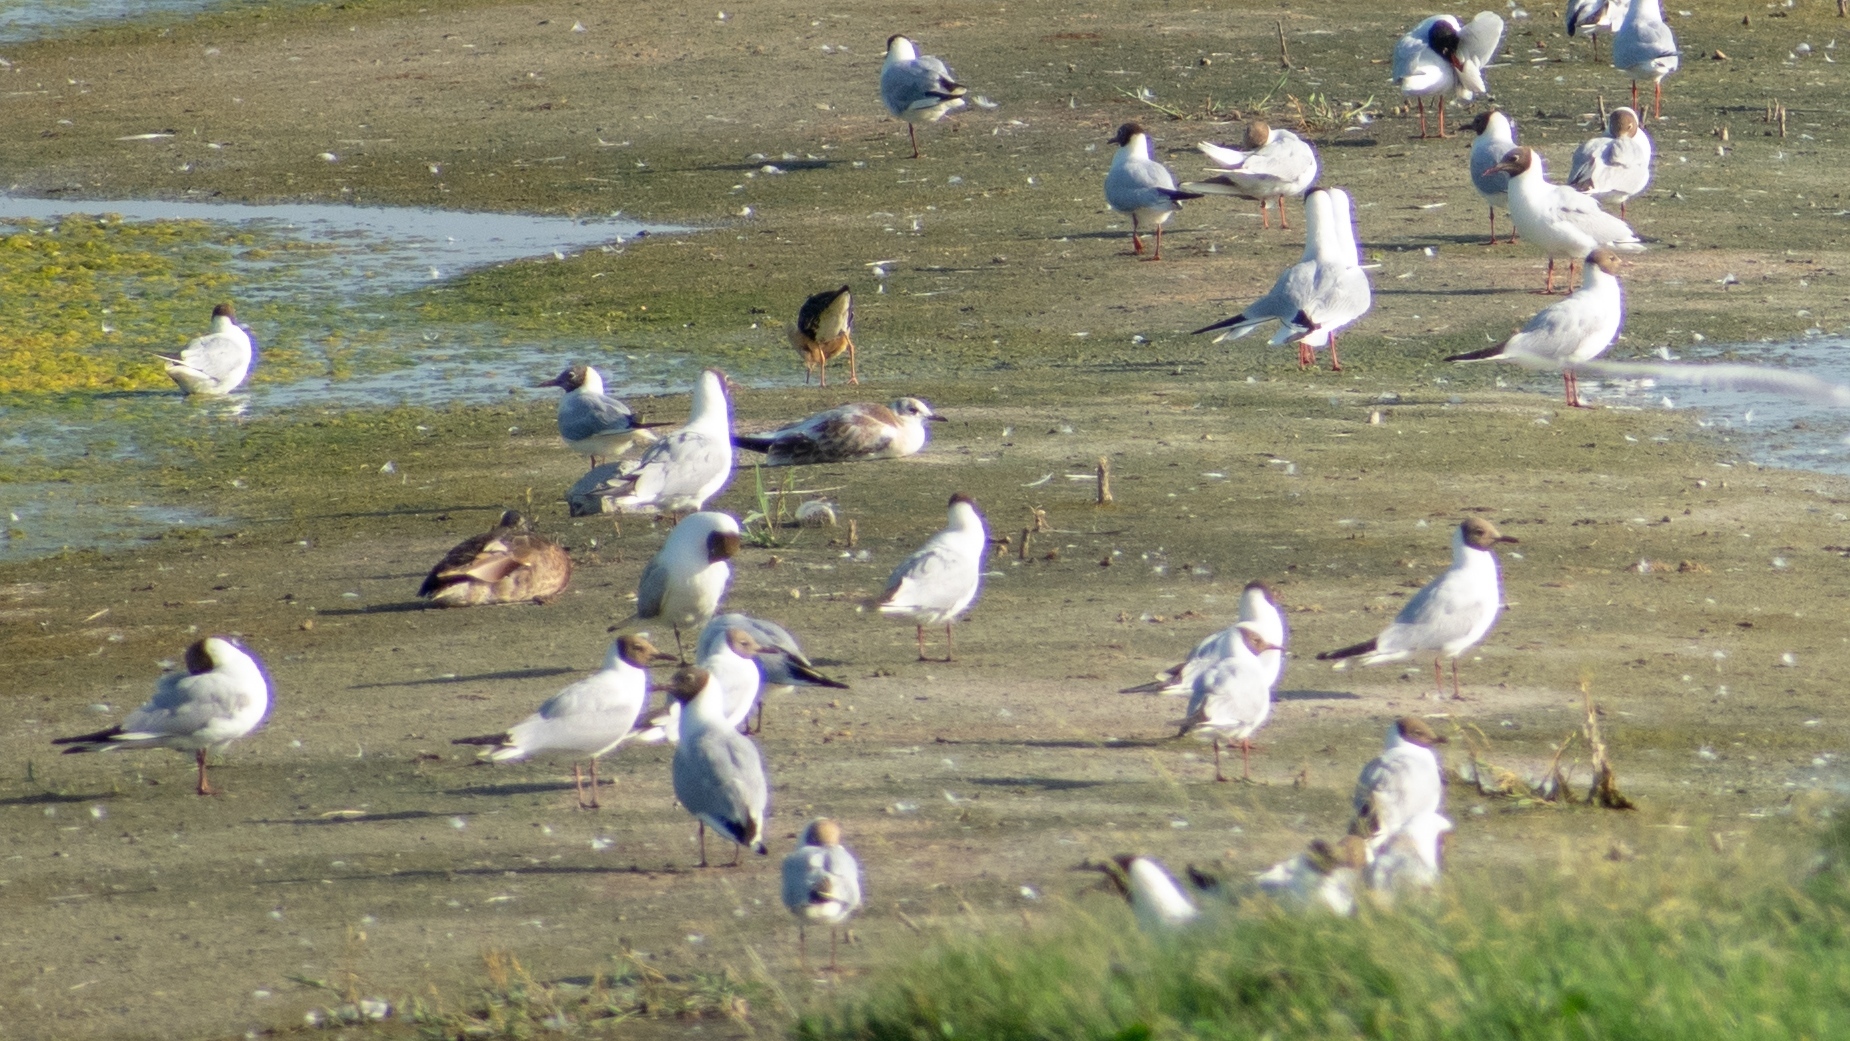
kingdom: Animalia
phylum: Chordata
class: Aves
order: Charadriiformes
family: Laridae
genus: Chroicocephalus
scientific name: Chroicocephalus ridibundus
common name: Black-headed gull
